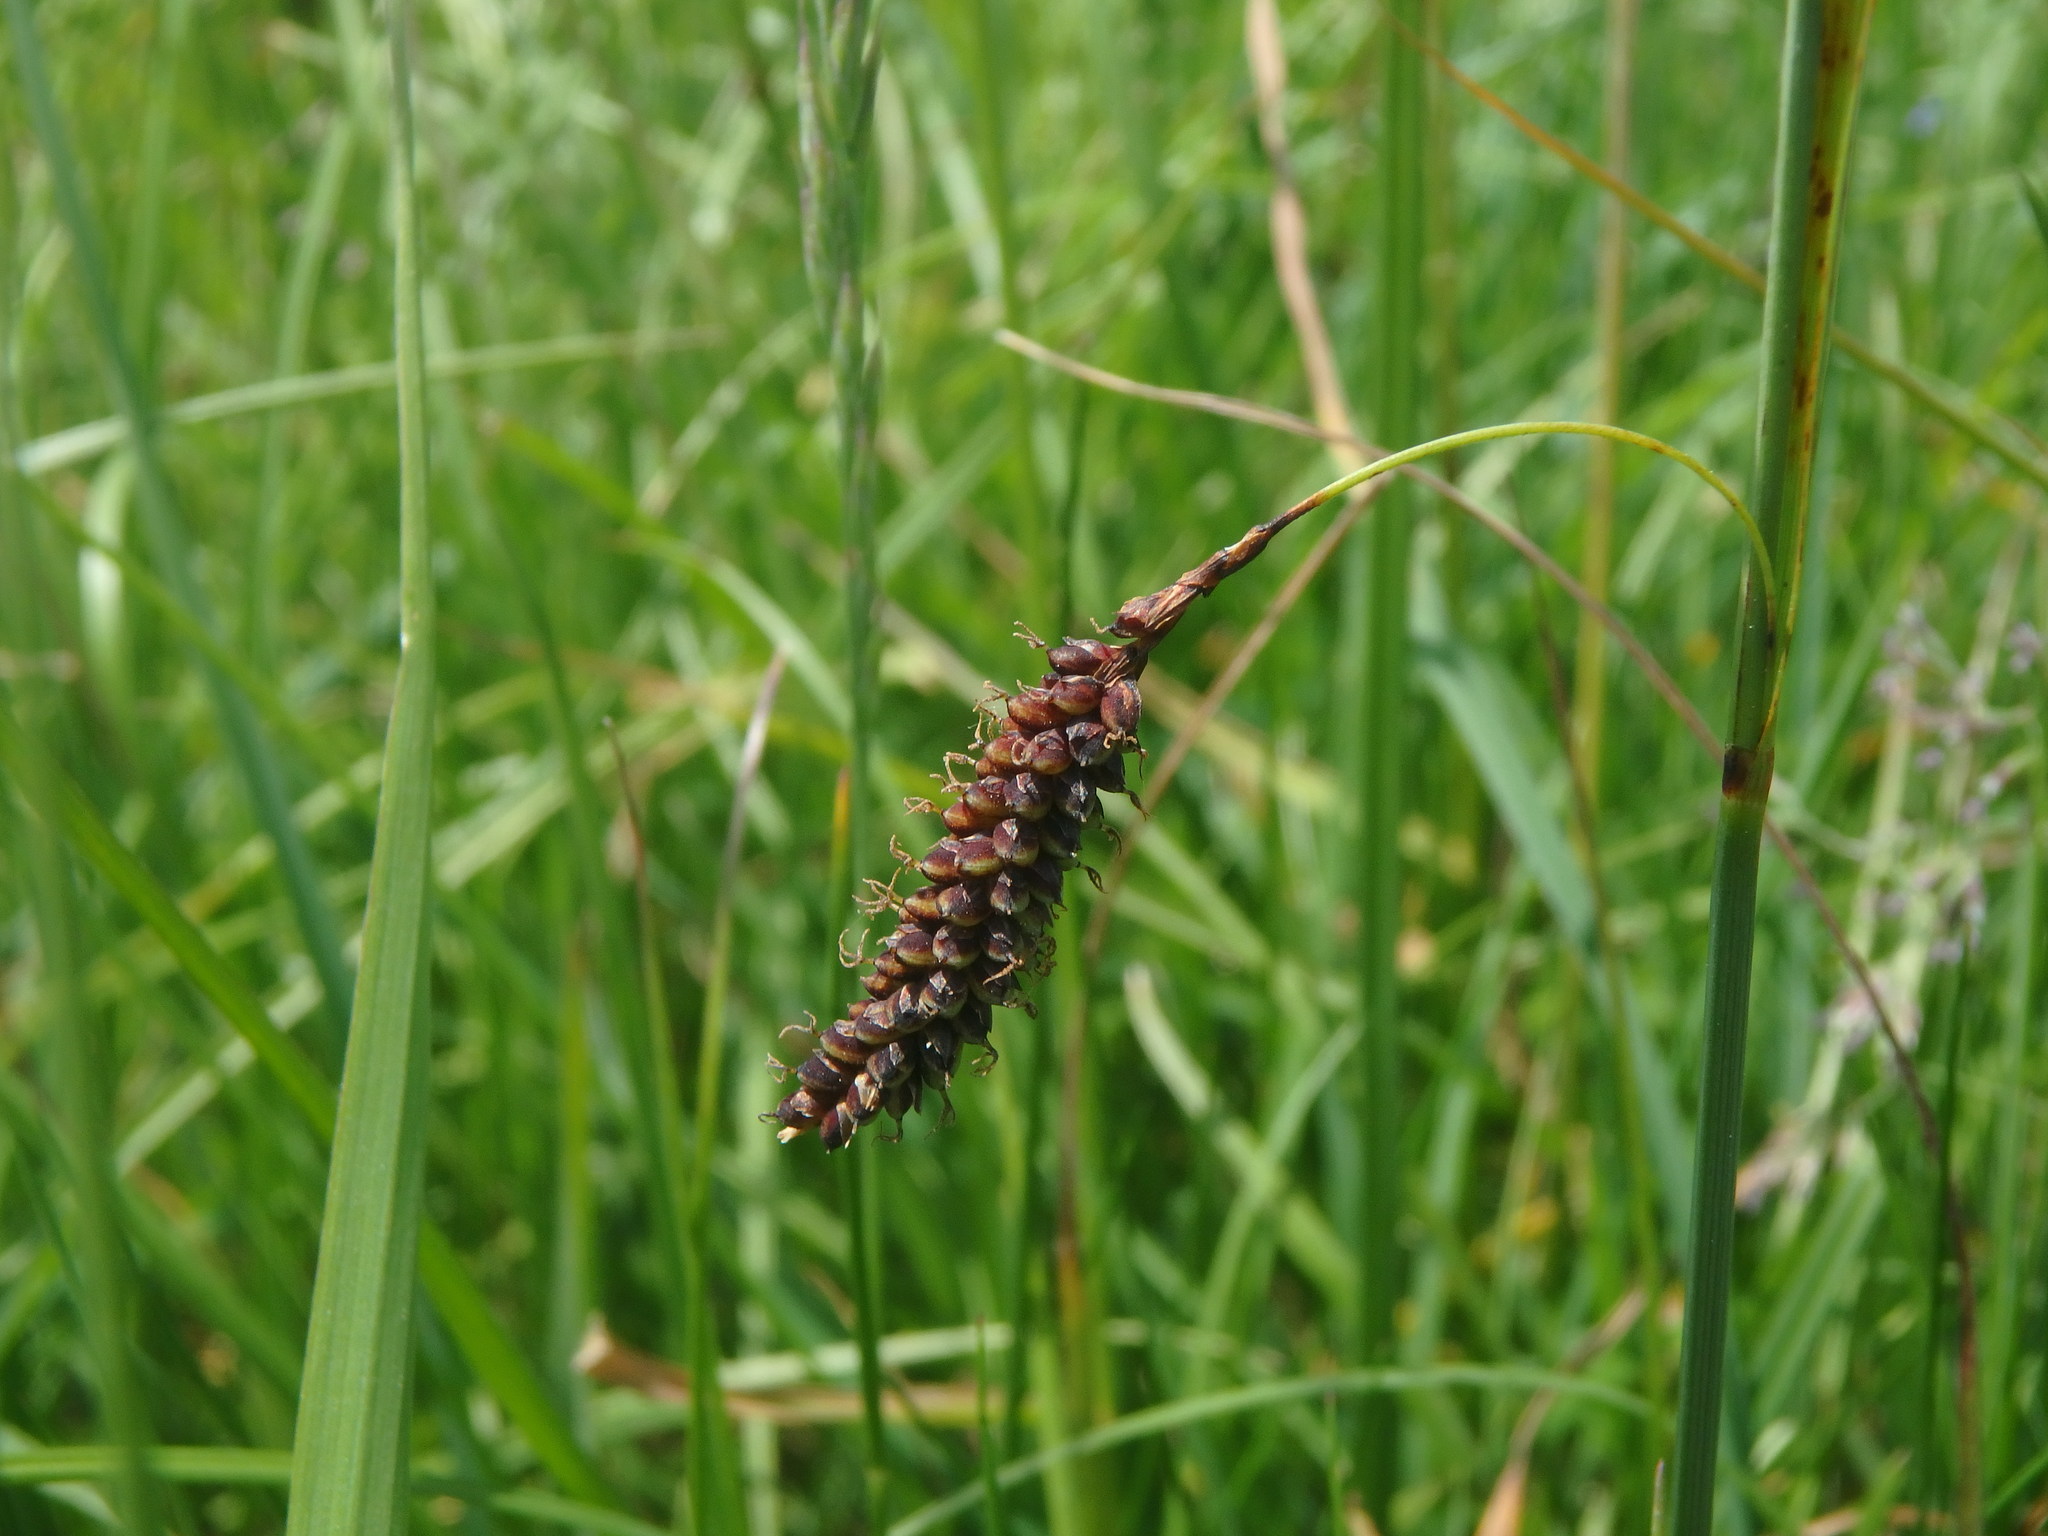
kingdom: Plantae
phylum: Tracheophyta
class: Liliopsida
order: Poales
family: Cyperaceae
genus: Carex
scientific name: Carex flacca
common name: Glaucous sedge
